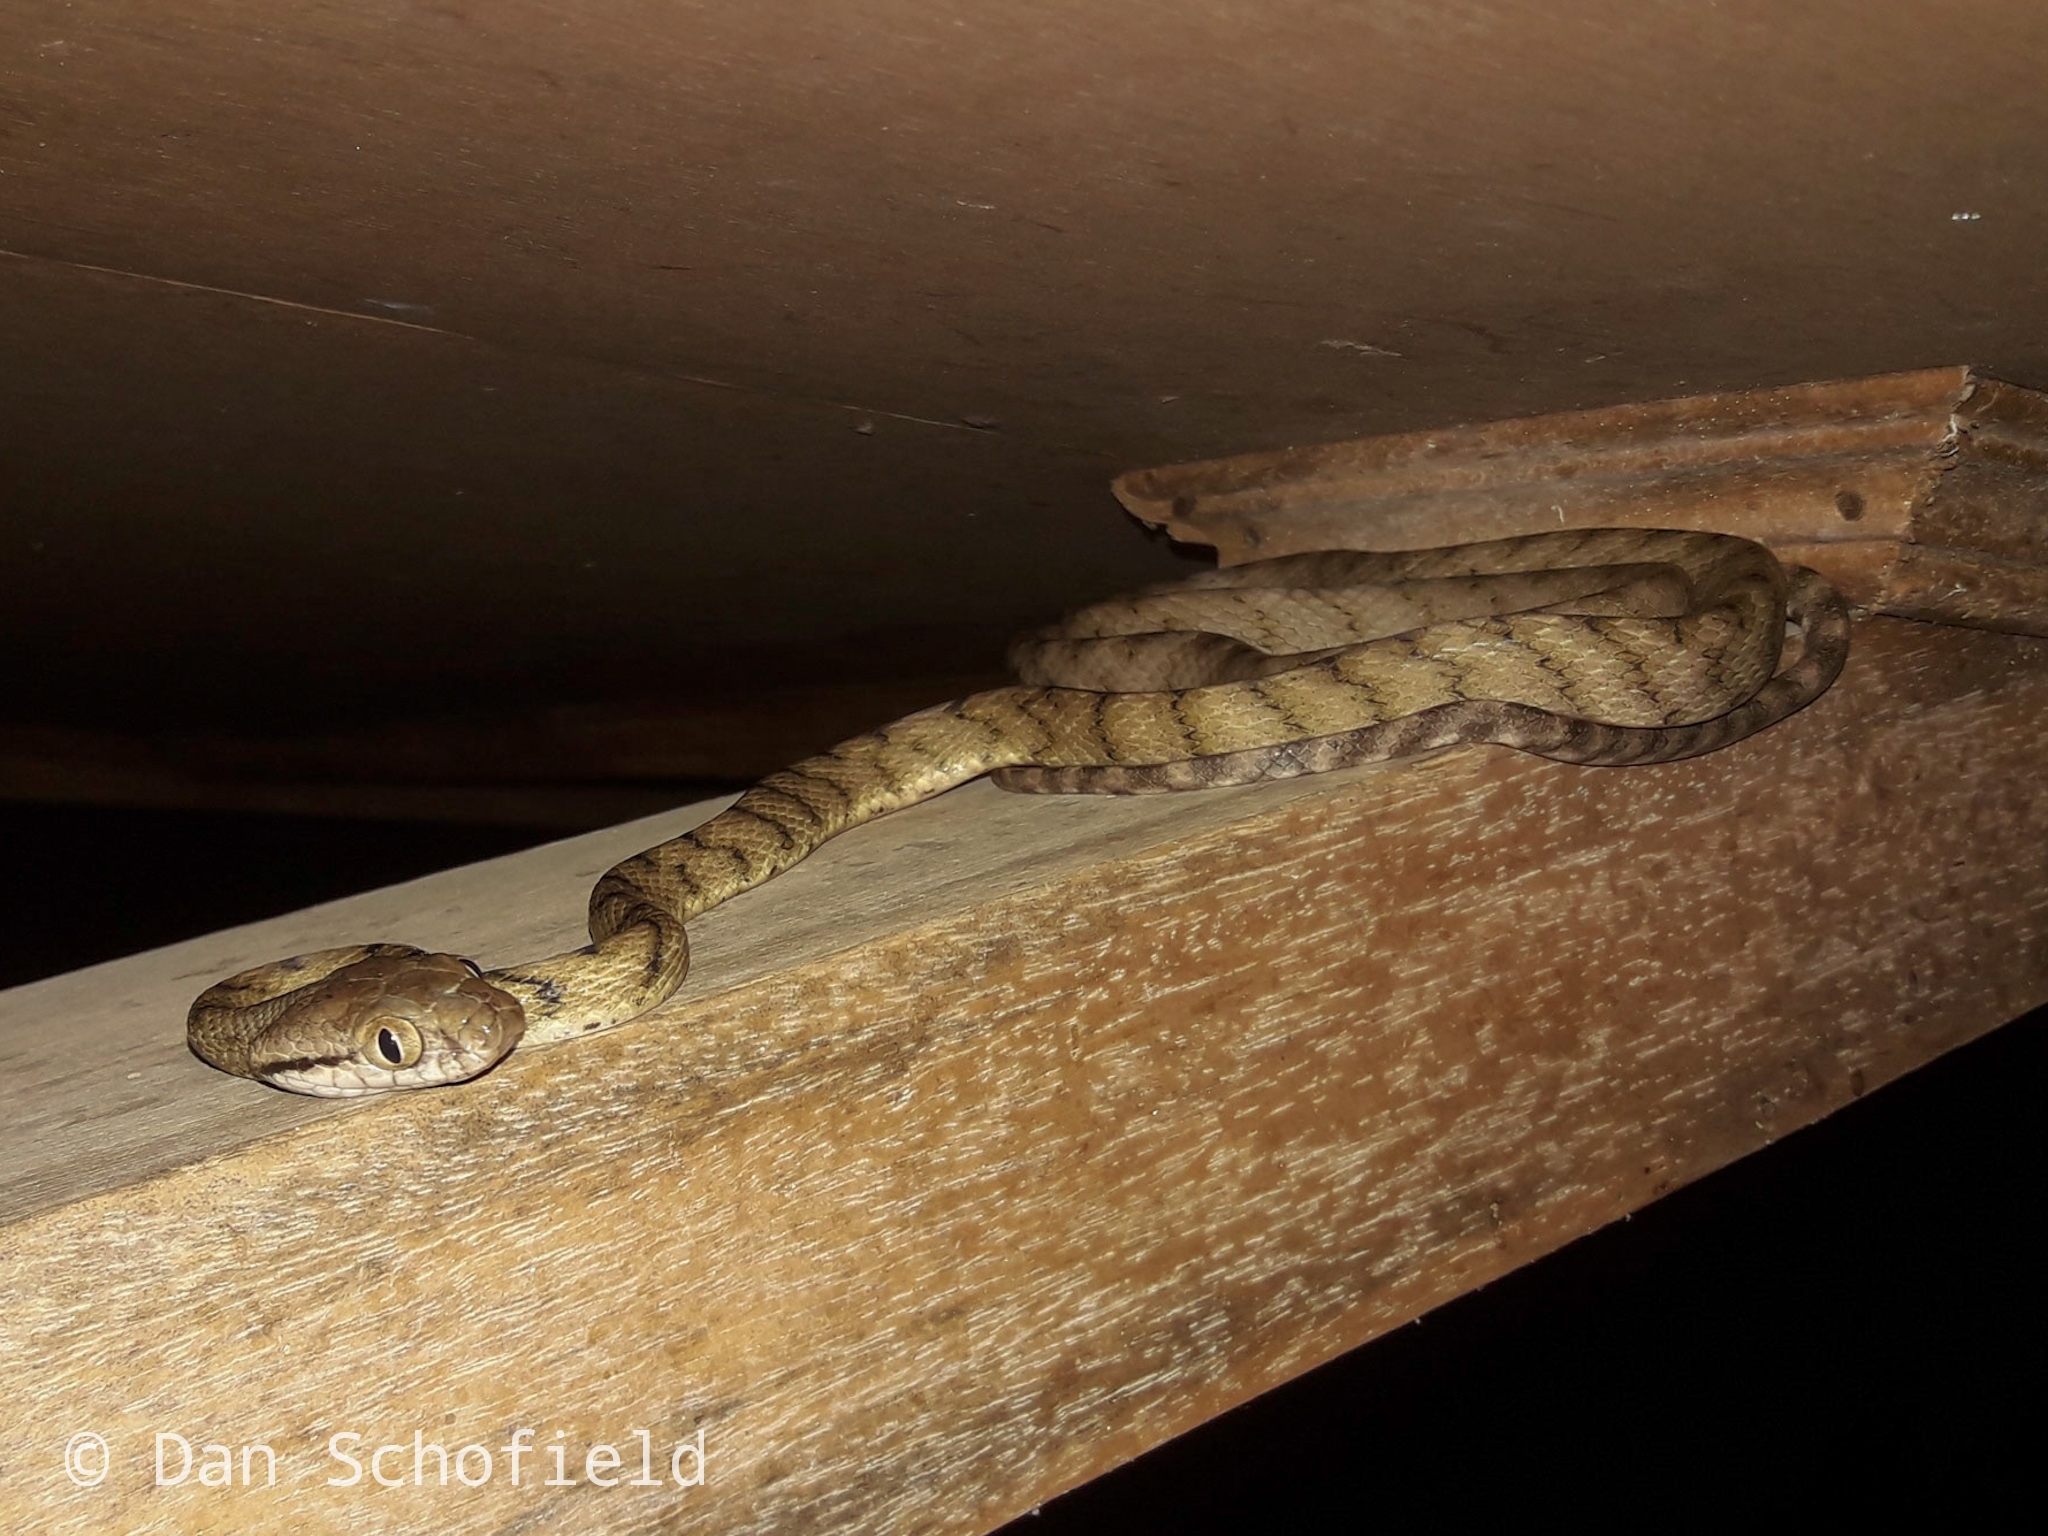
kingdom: Animalia
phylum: Chordata
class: Squamata
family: Colubridae
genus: Boiga
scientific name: Boiga irregularis
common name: Brown tree snake
